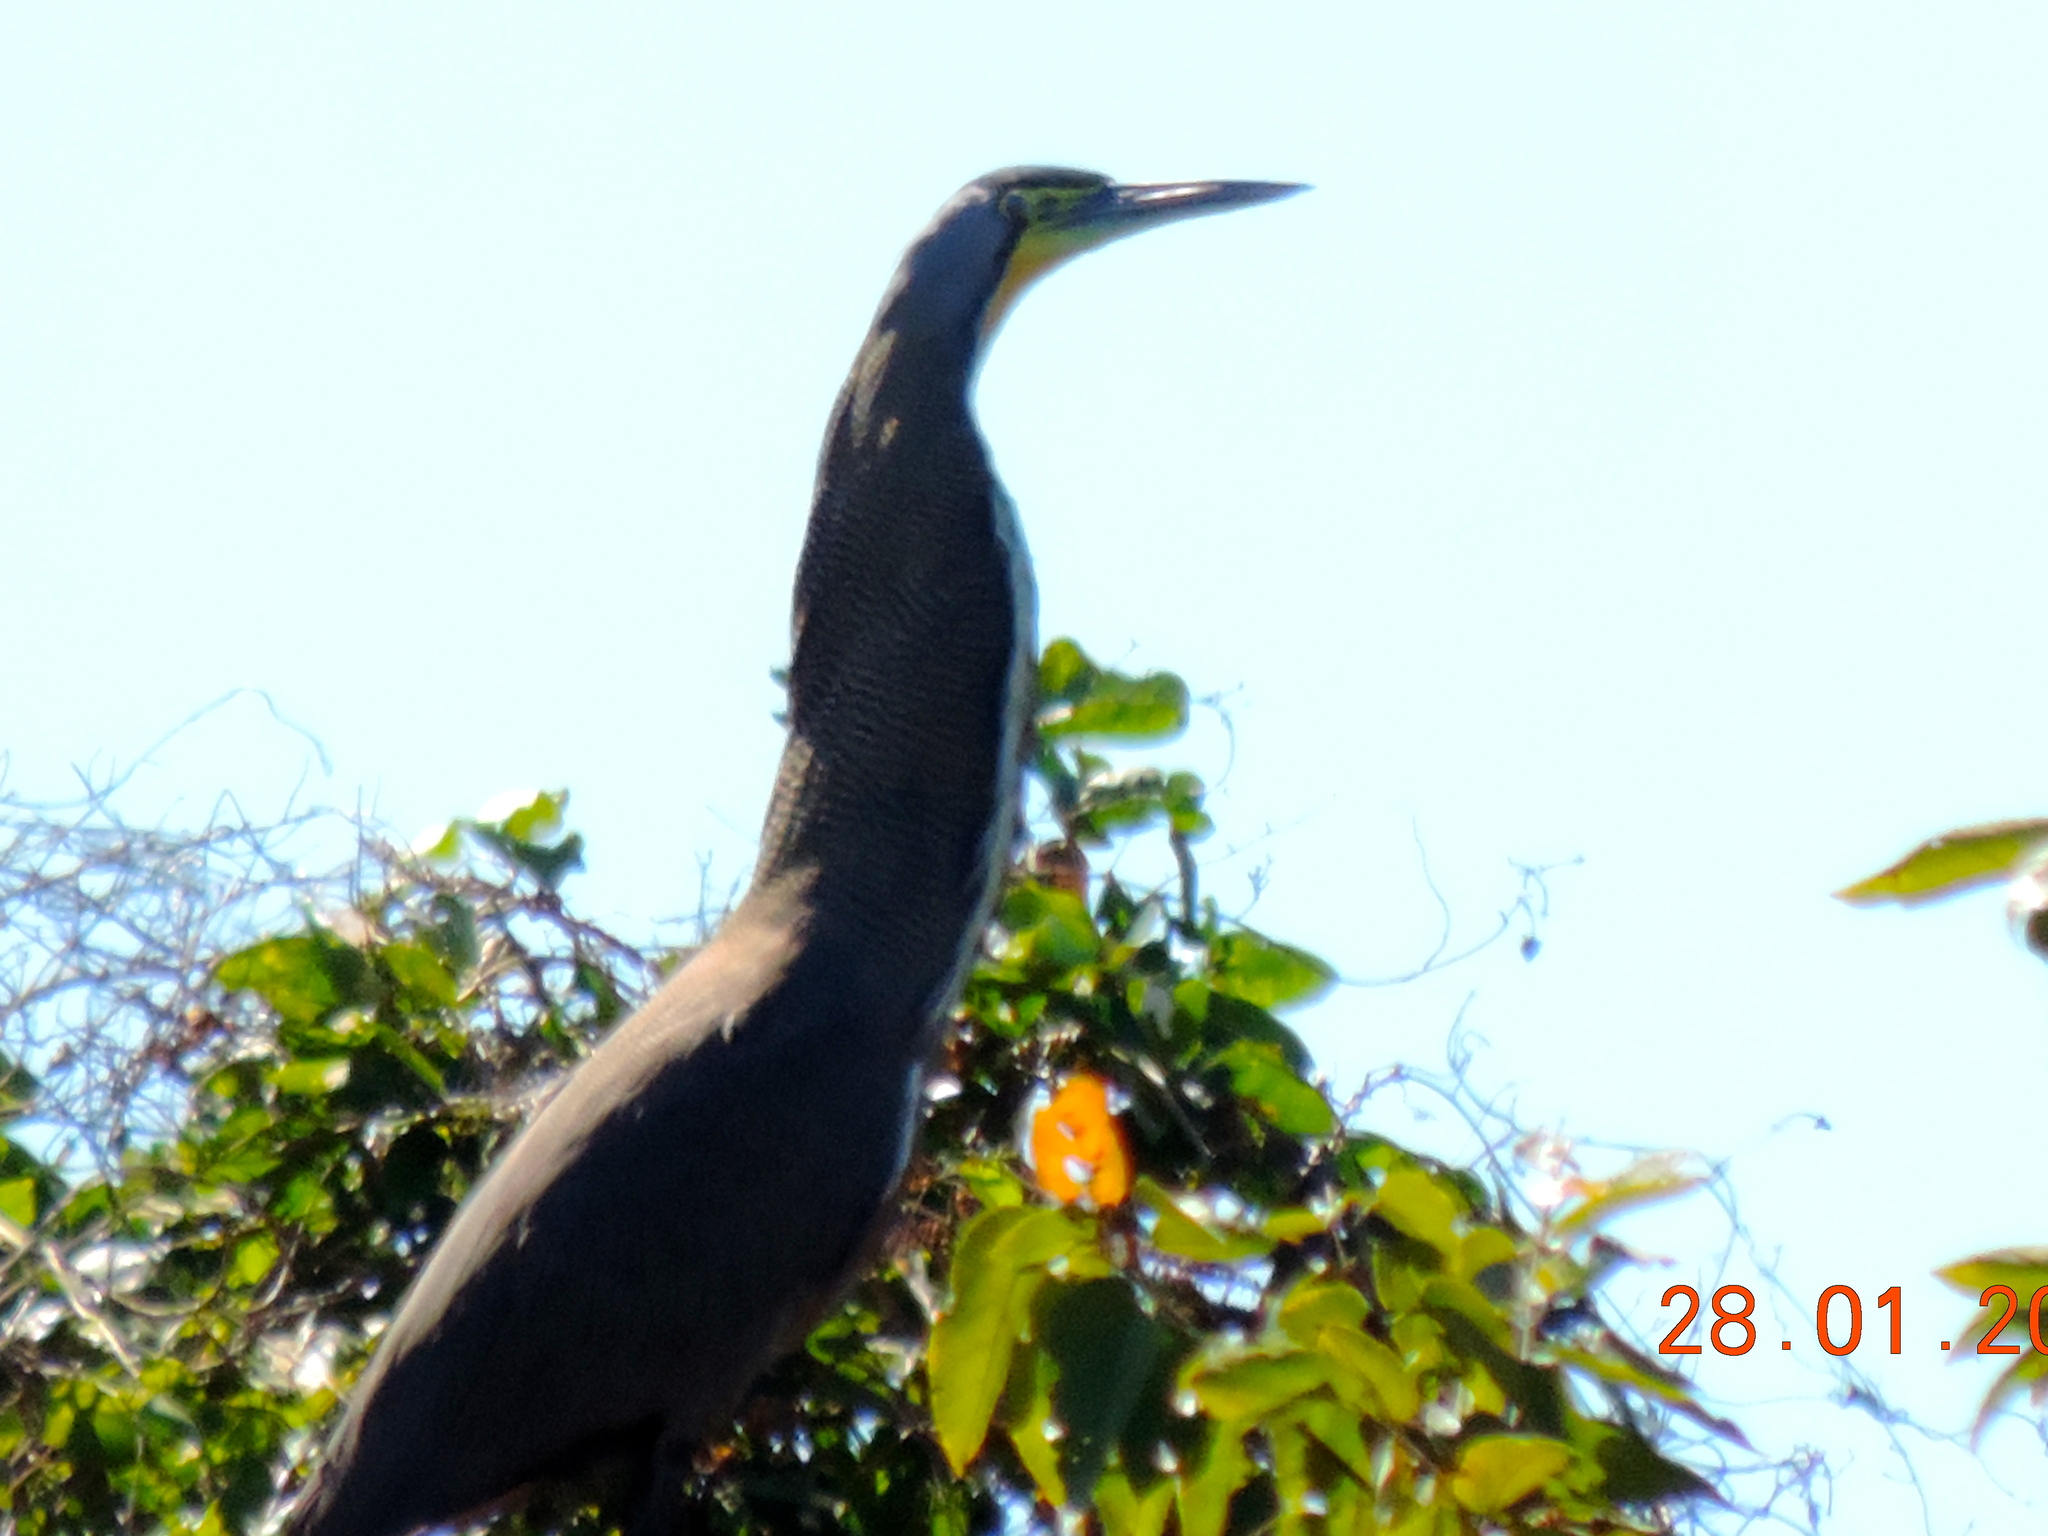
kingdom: Animalia
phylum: Chordata
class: Aves
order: Pelecaniformes
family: Ardeidae
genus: Tigrisoma
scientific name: Tigrisoma mexicanum
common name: Bare-throated tiger-heron
